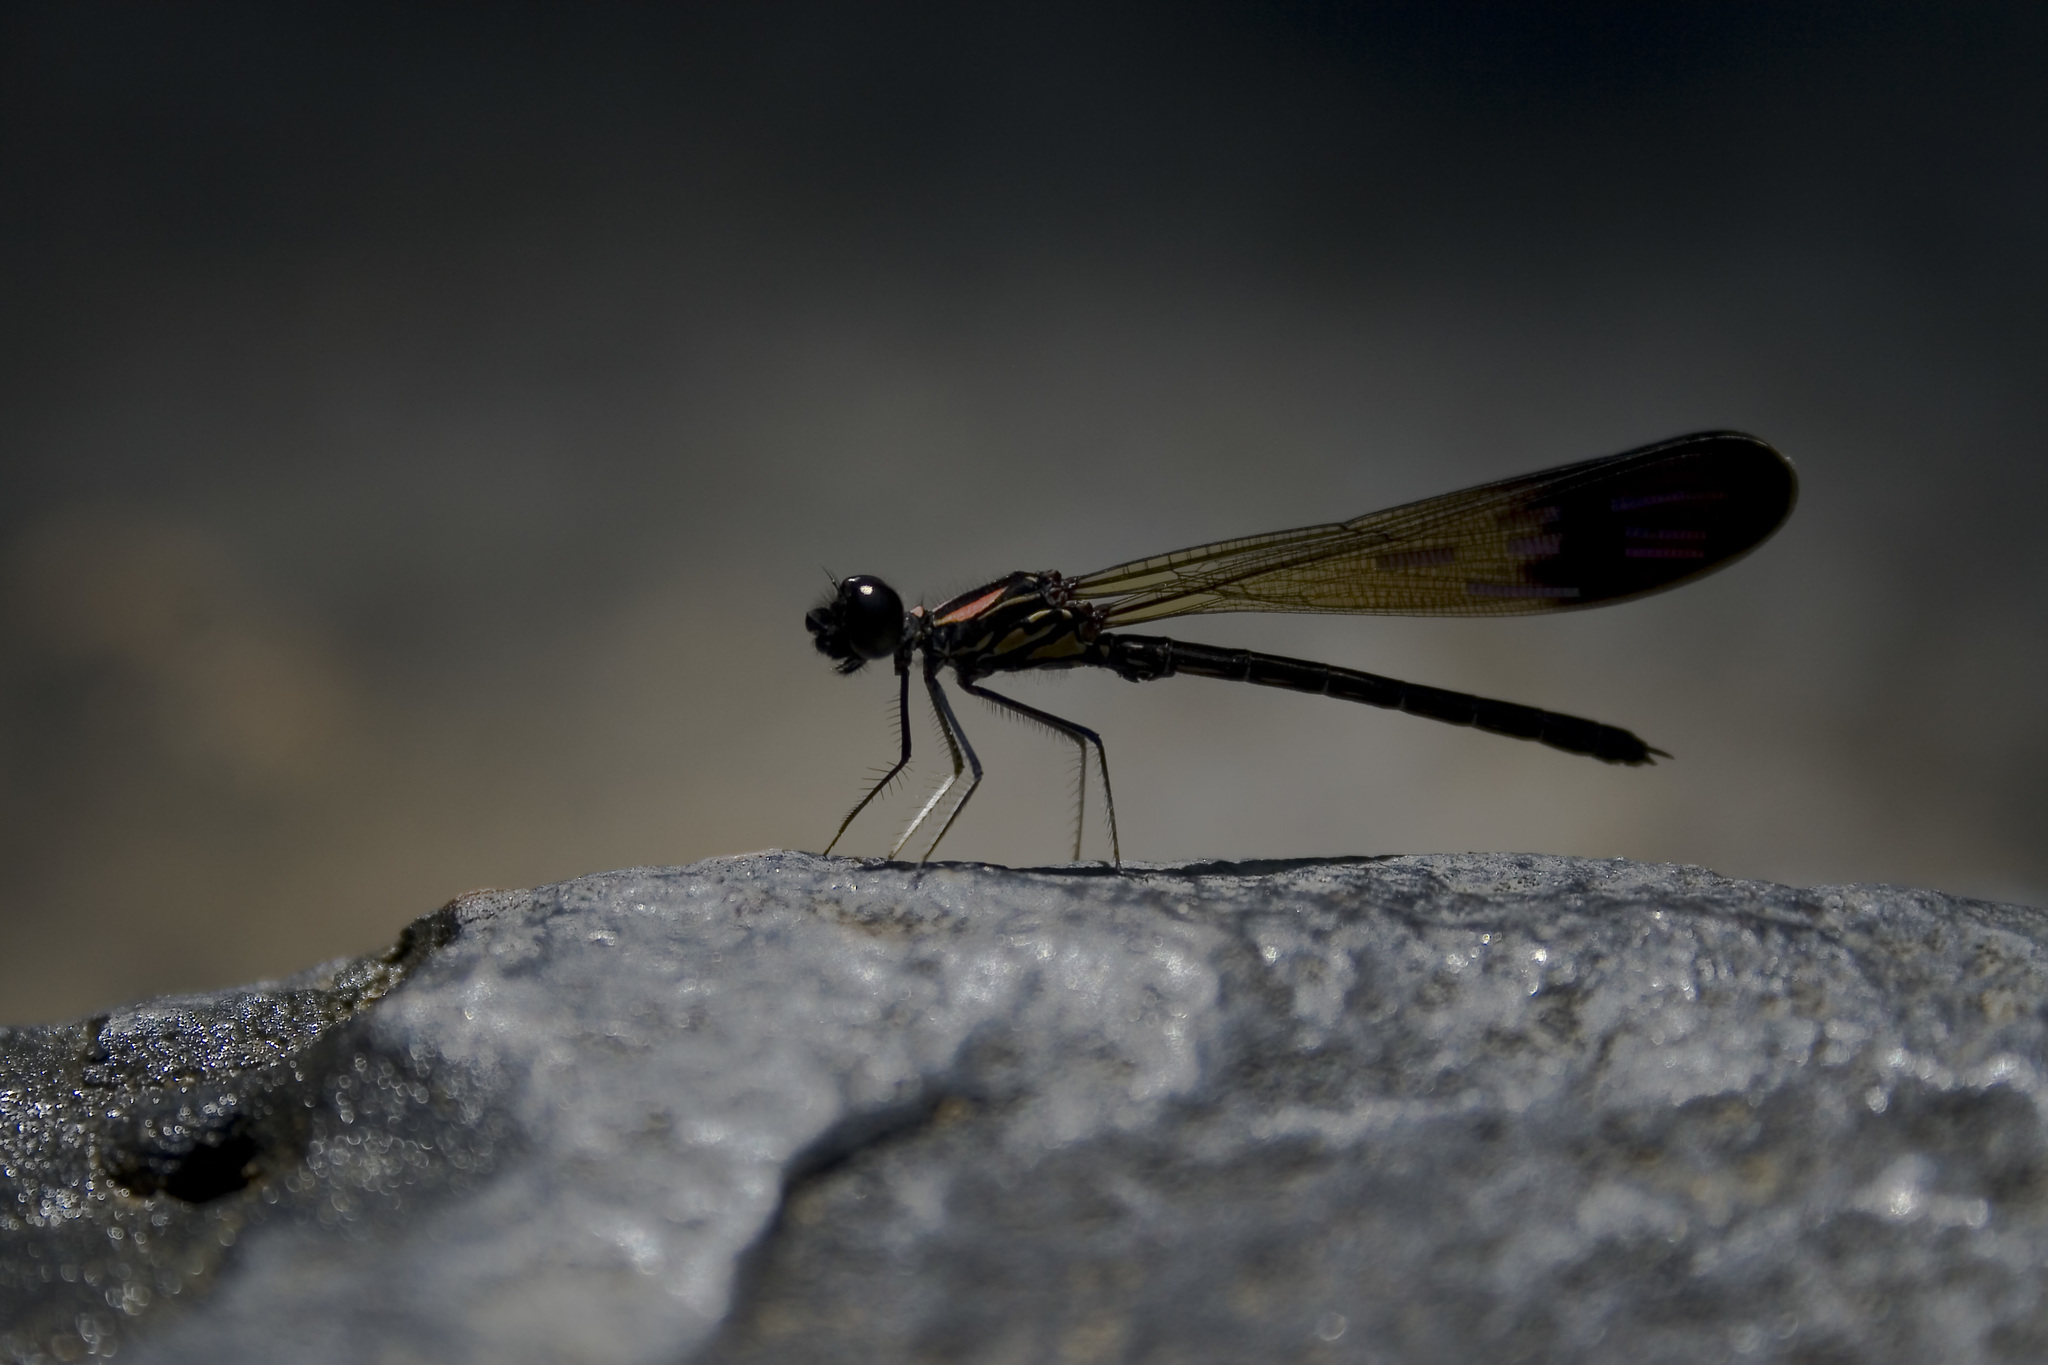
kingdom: Animalia
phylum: Arthropoda
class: Insecta
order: Odonata
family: Chlorocyphidae
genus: Heliocypha
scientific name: Heliocypha bisignata
